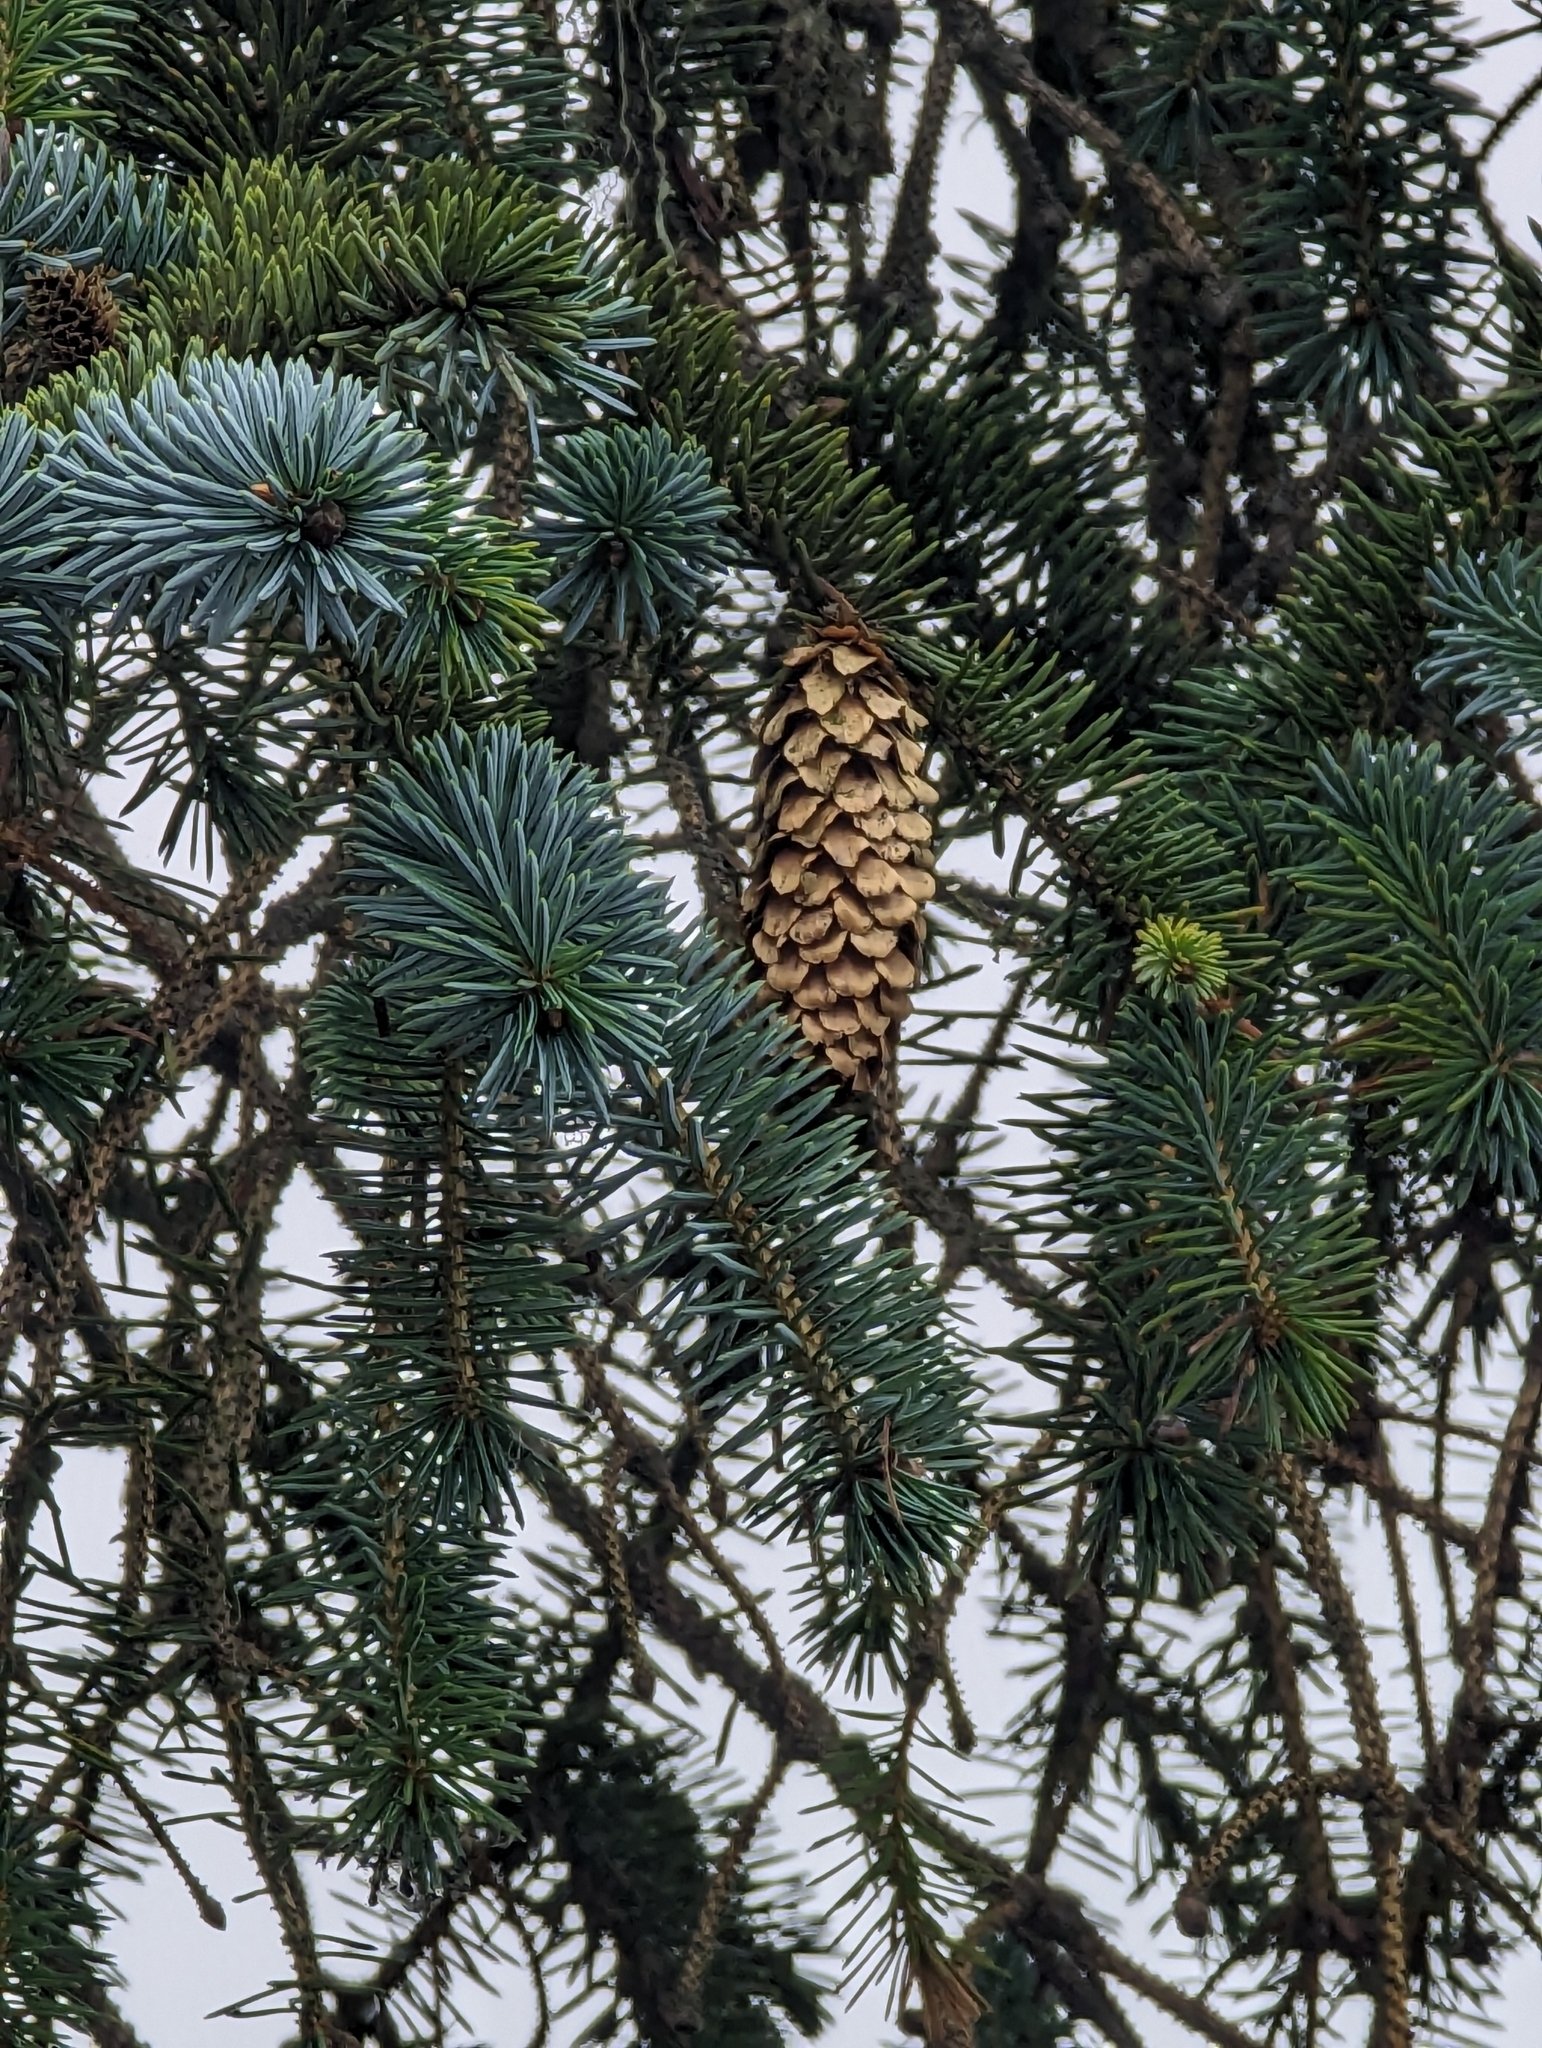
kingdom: Plantae
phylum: Tracheophyta
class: Pinopsida
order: Pinales
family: Pinaceae
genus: Picea
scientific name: Picea sitchensis
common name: Sitka spruce
